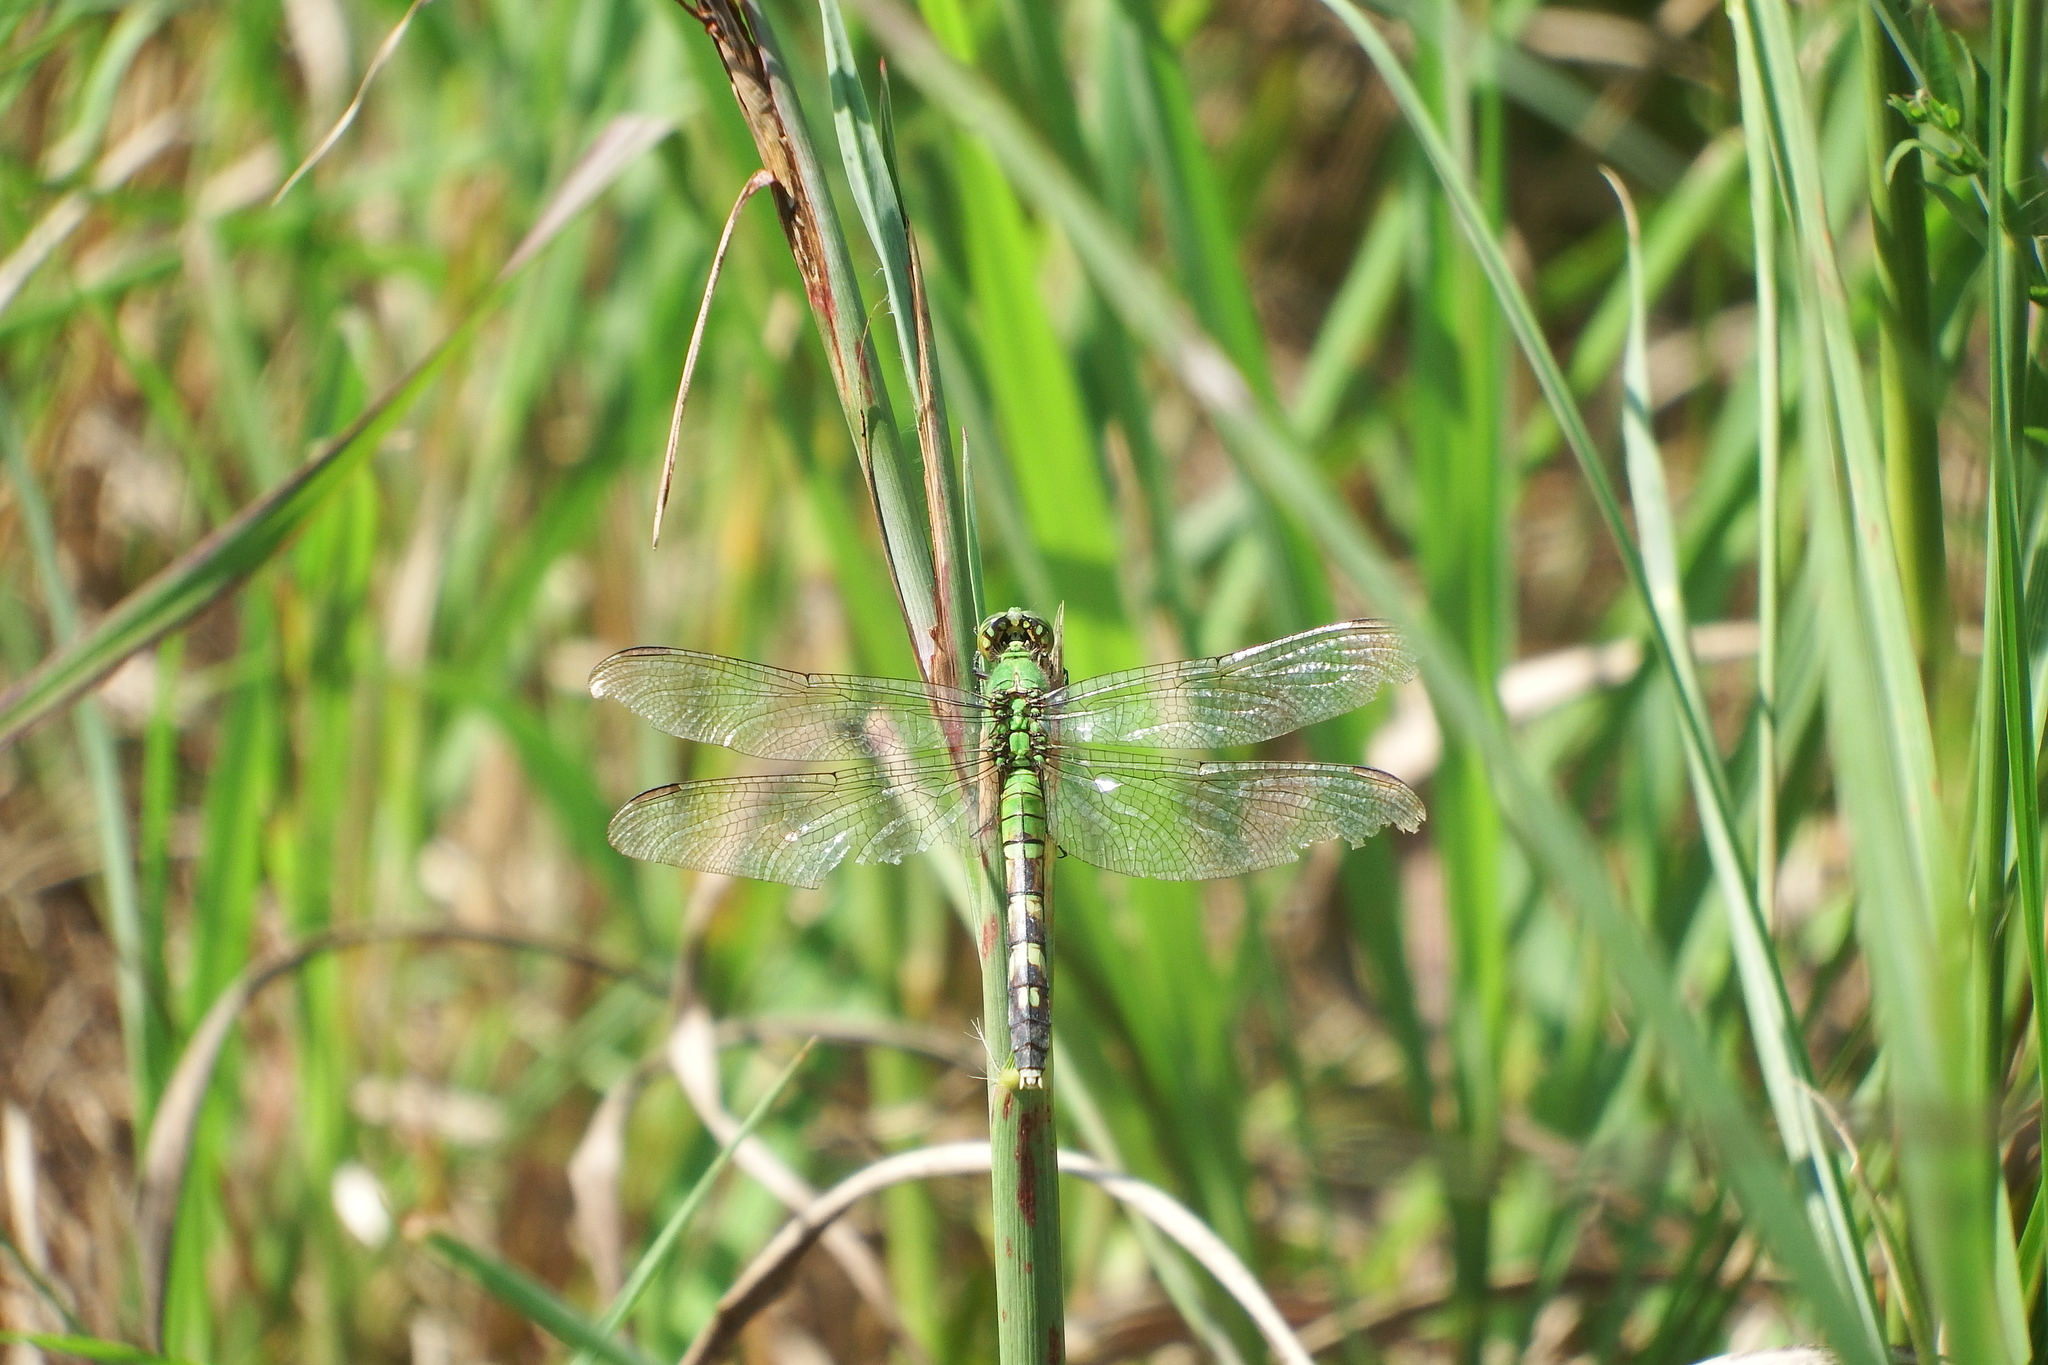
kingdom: Animalia
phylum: Arthropoda
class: Insecta
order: Odonata
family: Libellulidae
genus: Erythemis
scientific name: Erythemis simplicicollis
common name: Eastern pondhawk
